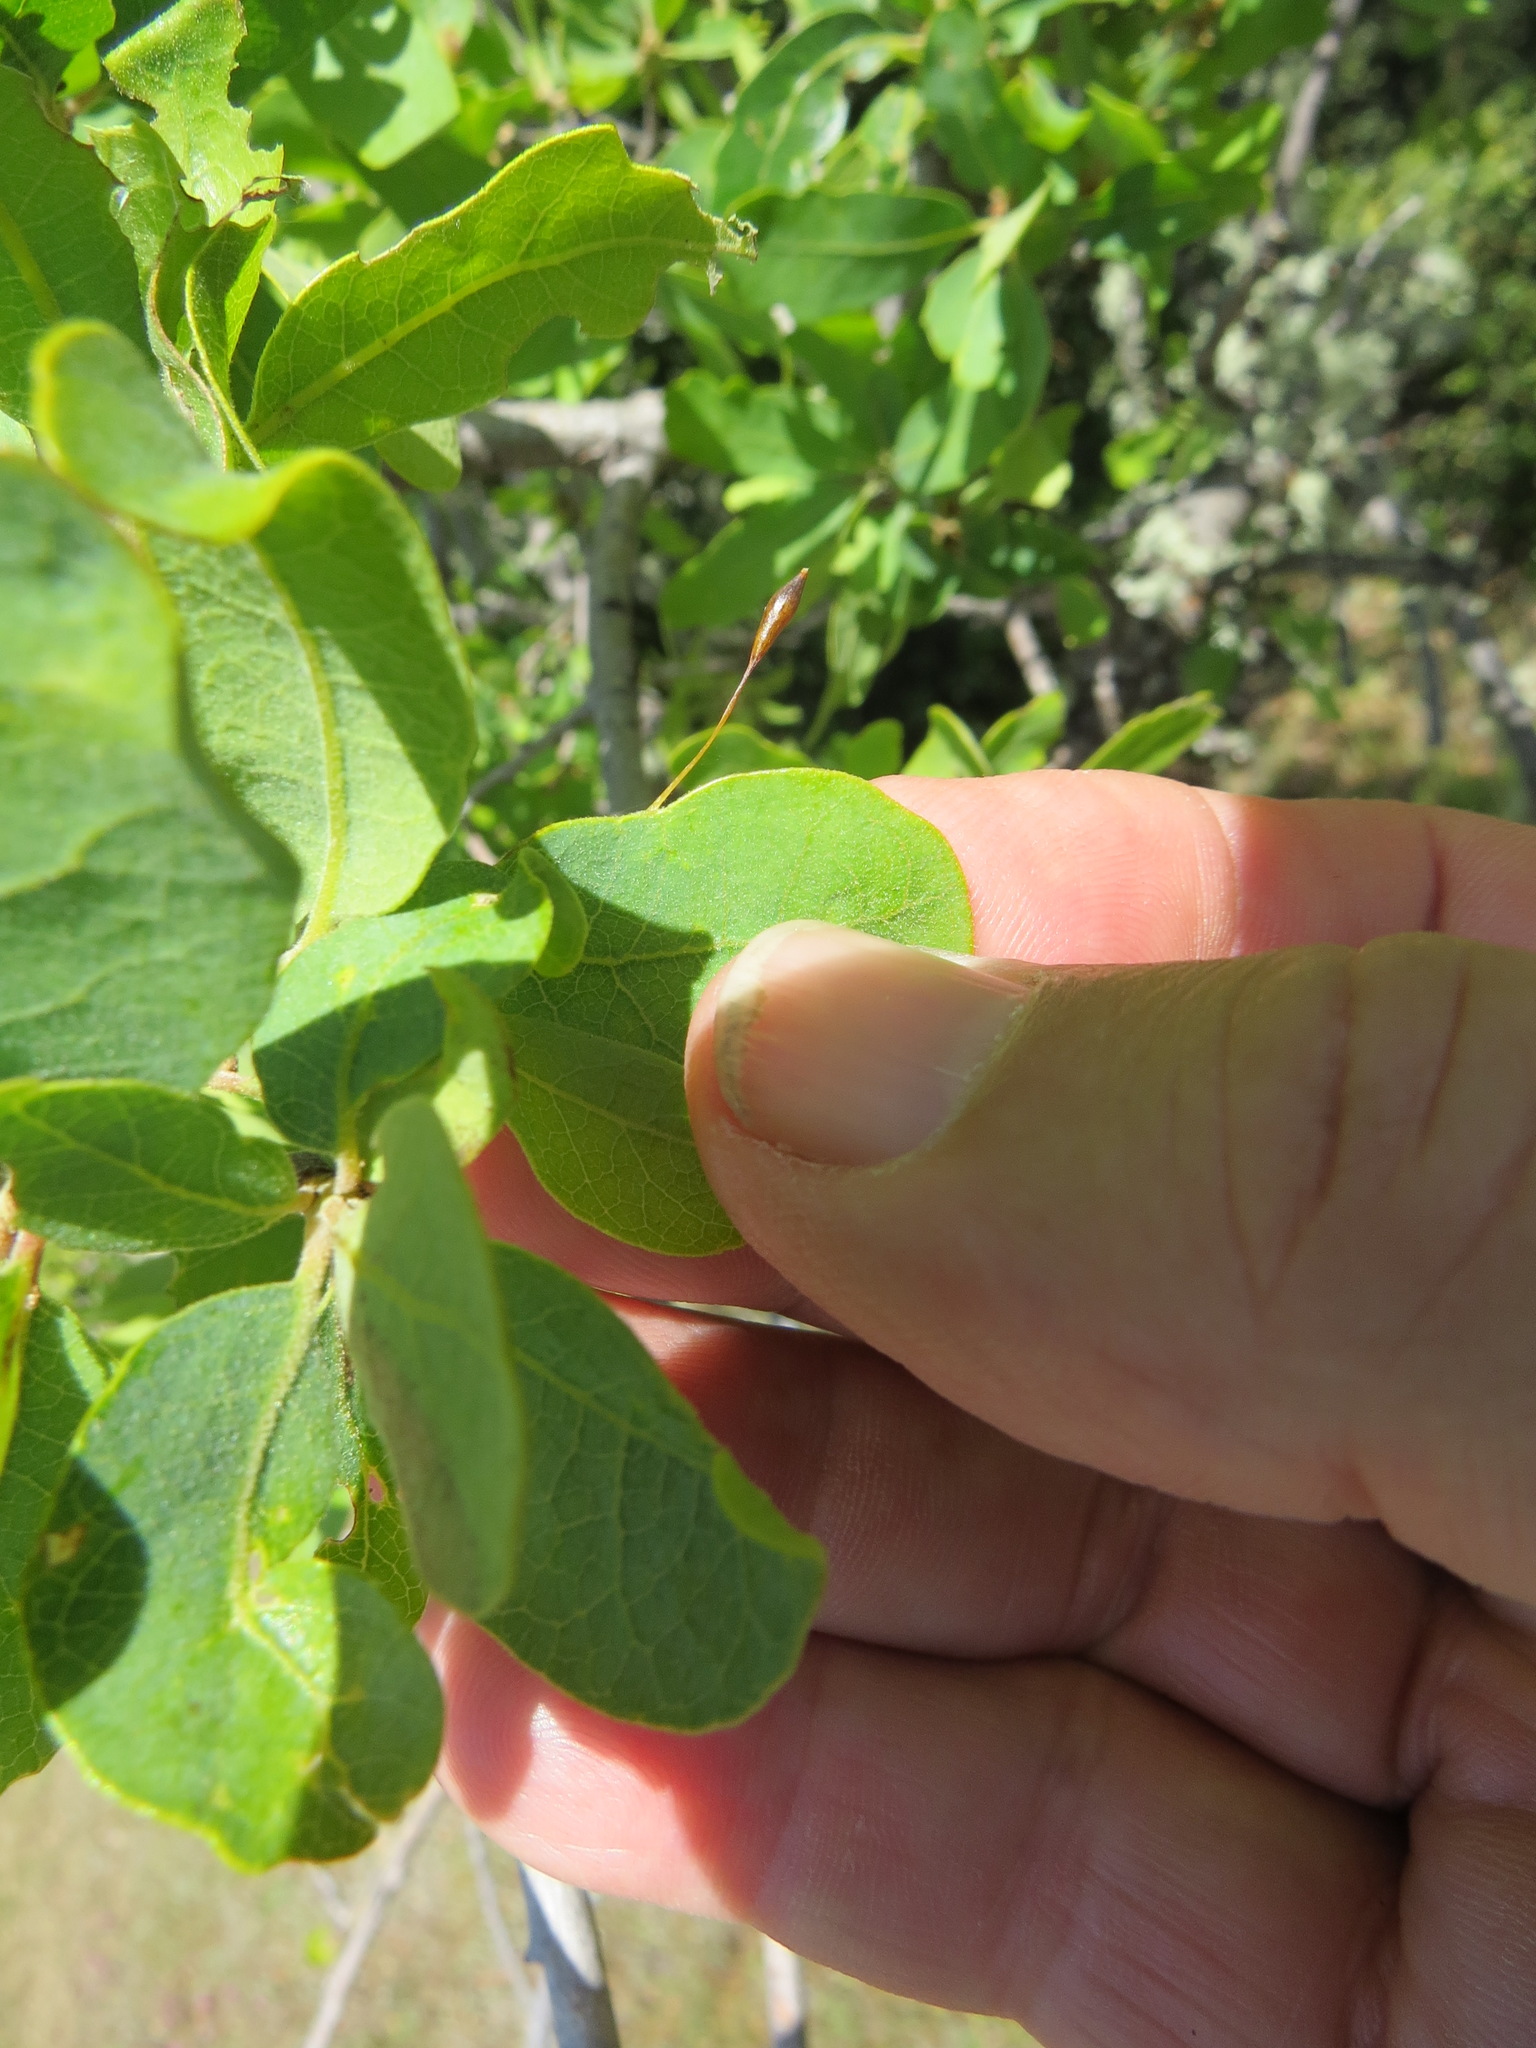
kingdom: Animalia
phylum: Arthropoda
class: Insecta
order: Hymenoptera
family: Cynipidae
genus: Andricus
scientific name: Andricus
